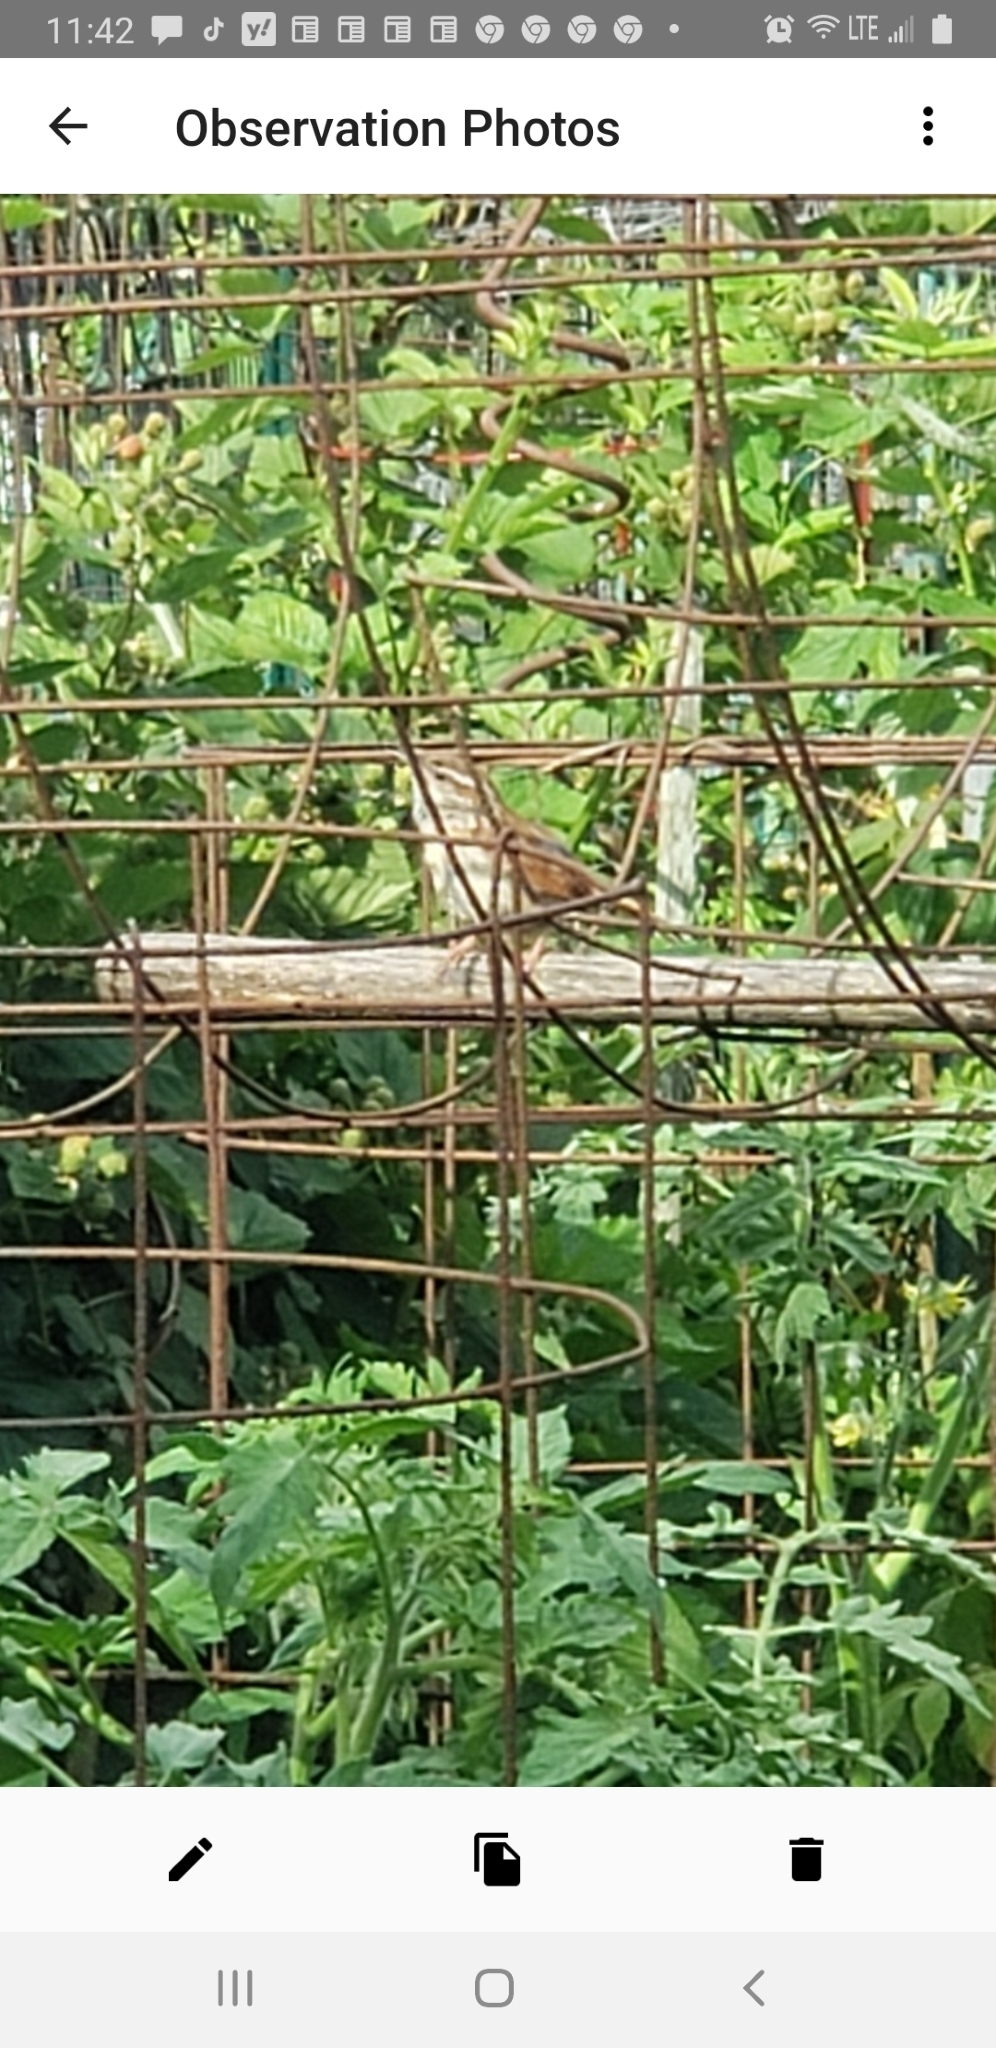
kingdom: Animalia
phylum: Chordata
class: Aves
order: Passeriformes
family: Troglodytidae
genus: Thryothorus
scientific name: Thryothorus ludovicianus
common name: Carolina wren
